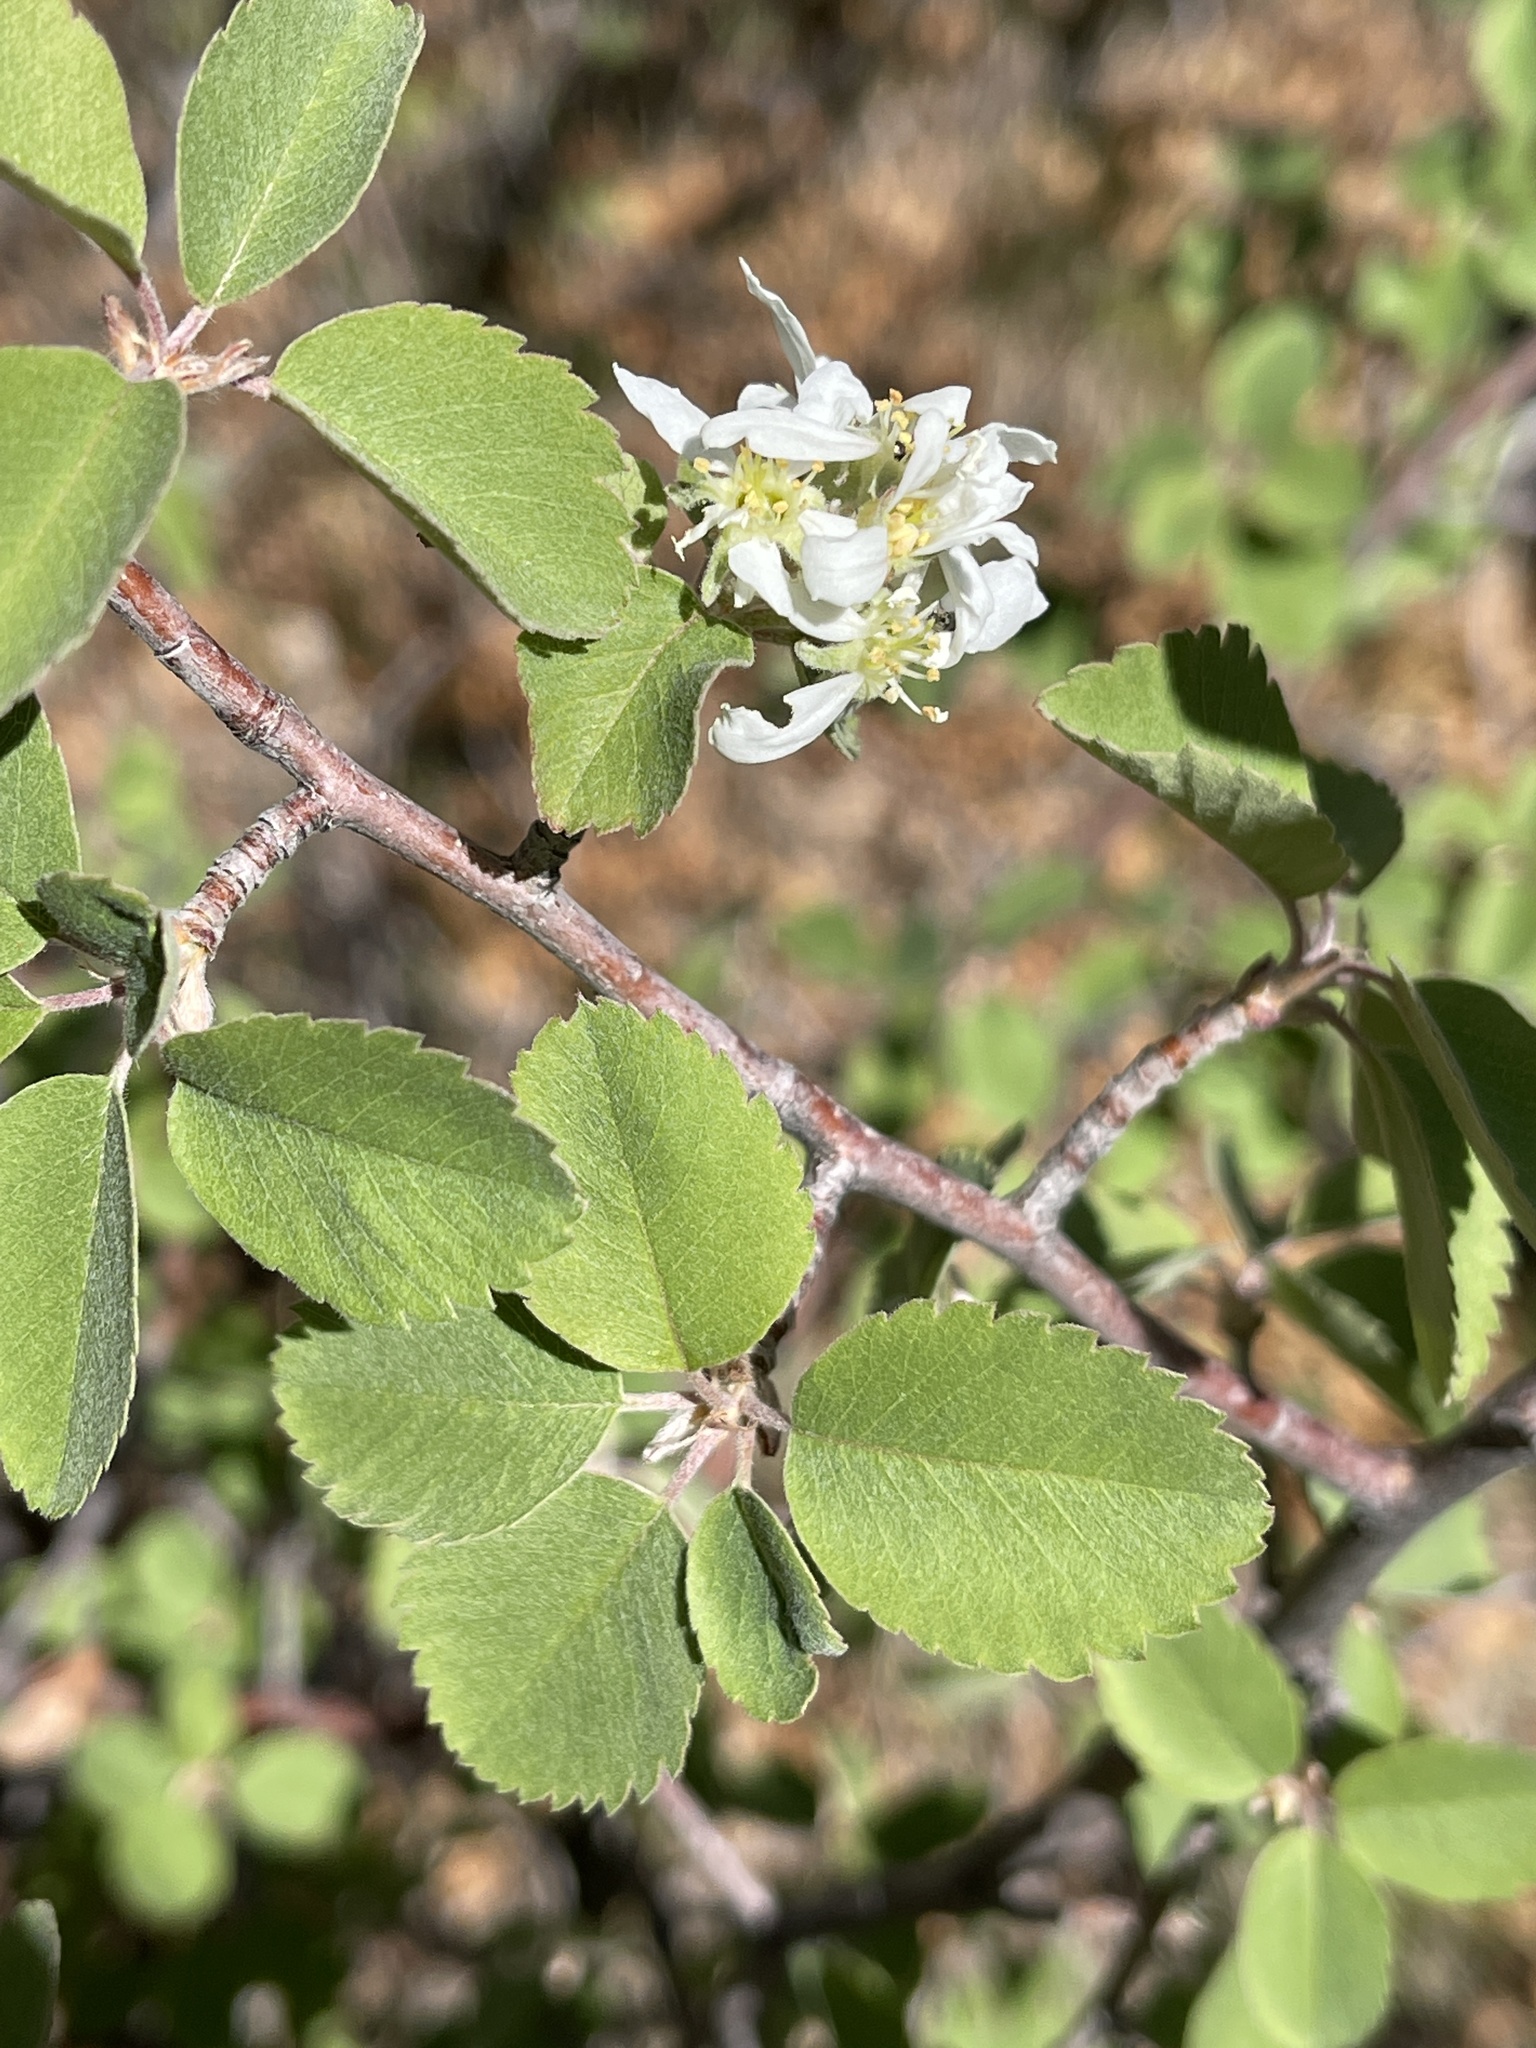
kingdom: Plantae
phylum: Tracheophyta
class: Magnoliopsida
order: Rosales
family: Rosaceae
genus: Amelanchier
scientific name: Amelanchier utahensis
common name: Utah serviceberry
